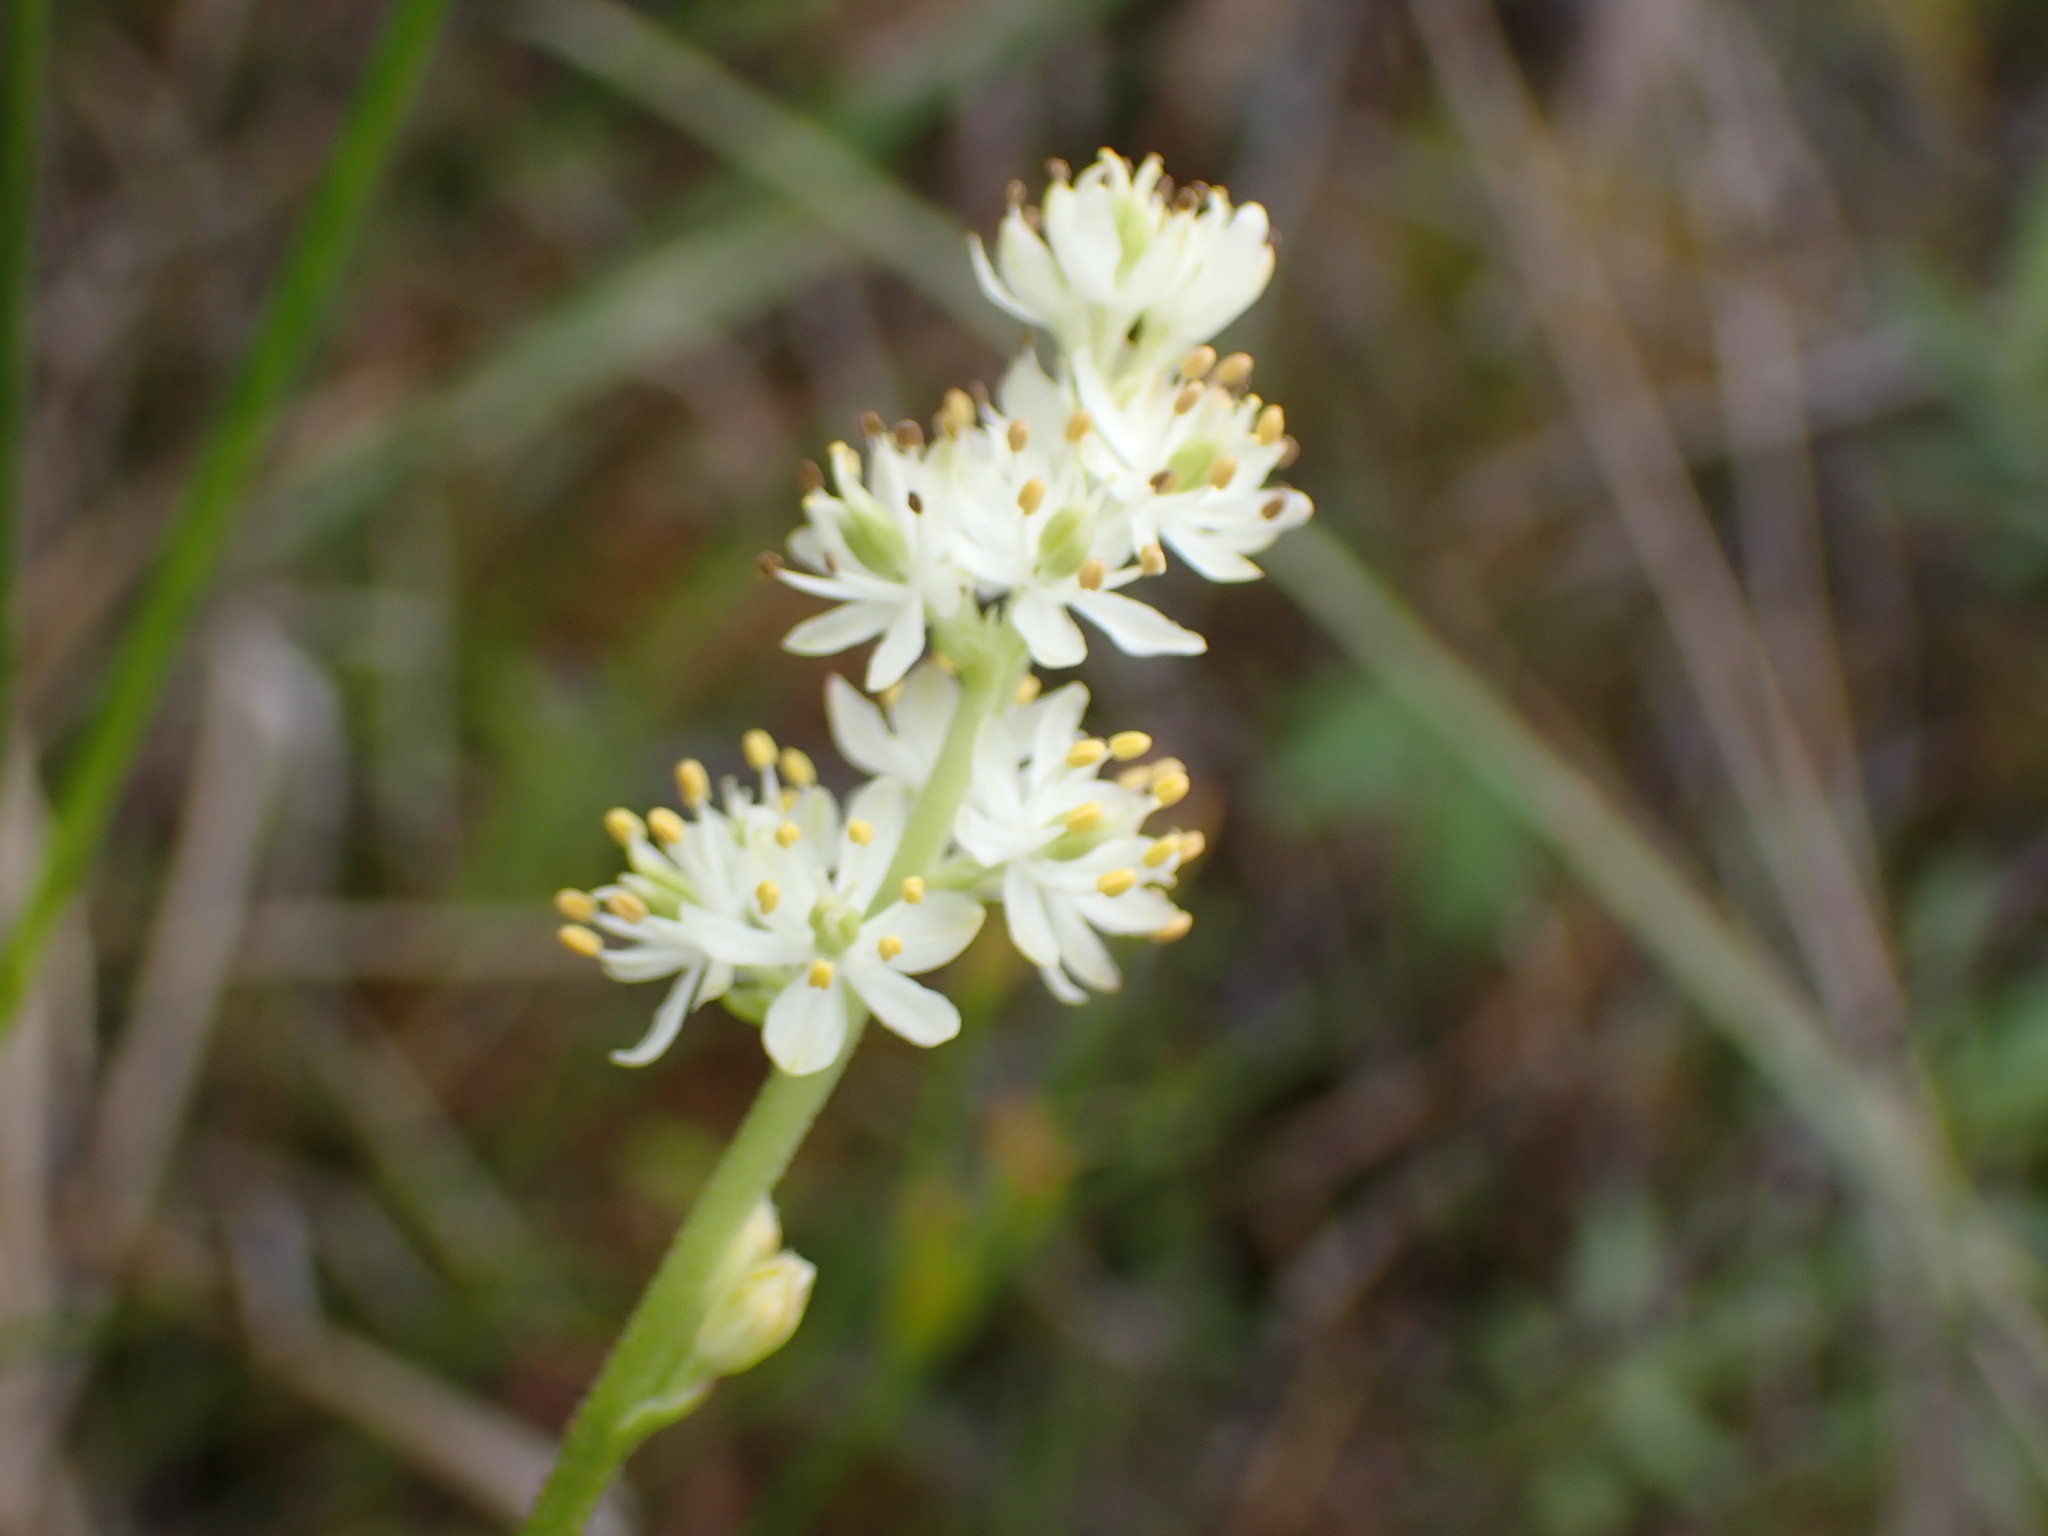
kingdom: Plantae
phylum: Tracheophyta
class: Liliopsida
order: Alismatales
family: Tofieldiaceae
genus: Triantha
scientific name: Triantha occidentalis
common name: Western false asphodel
